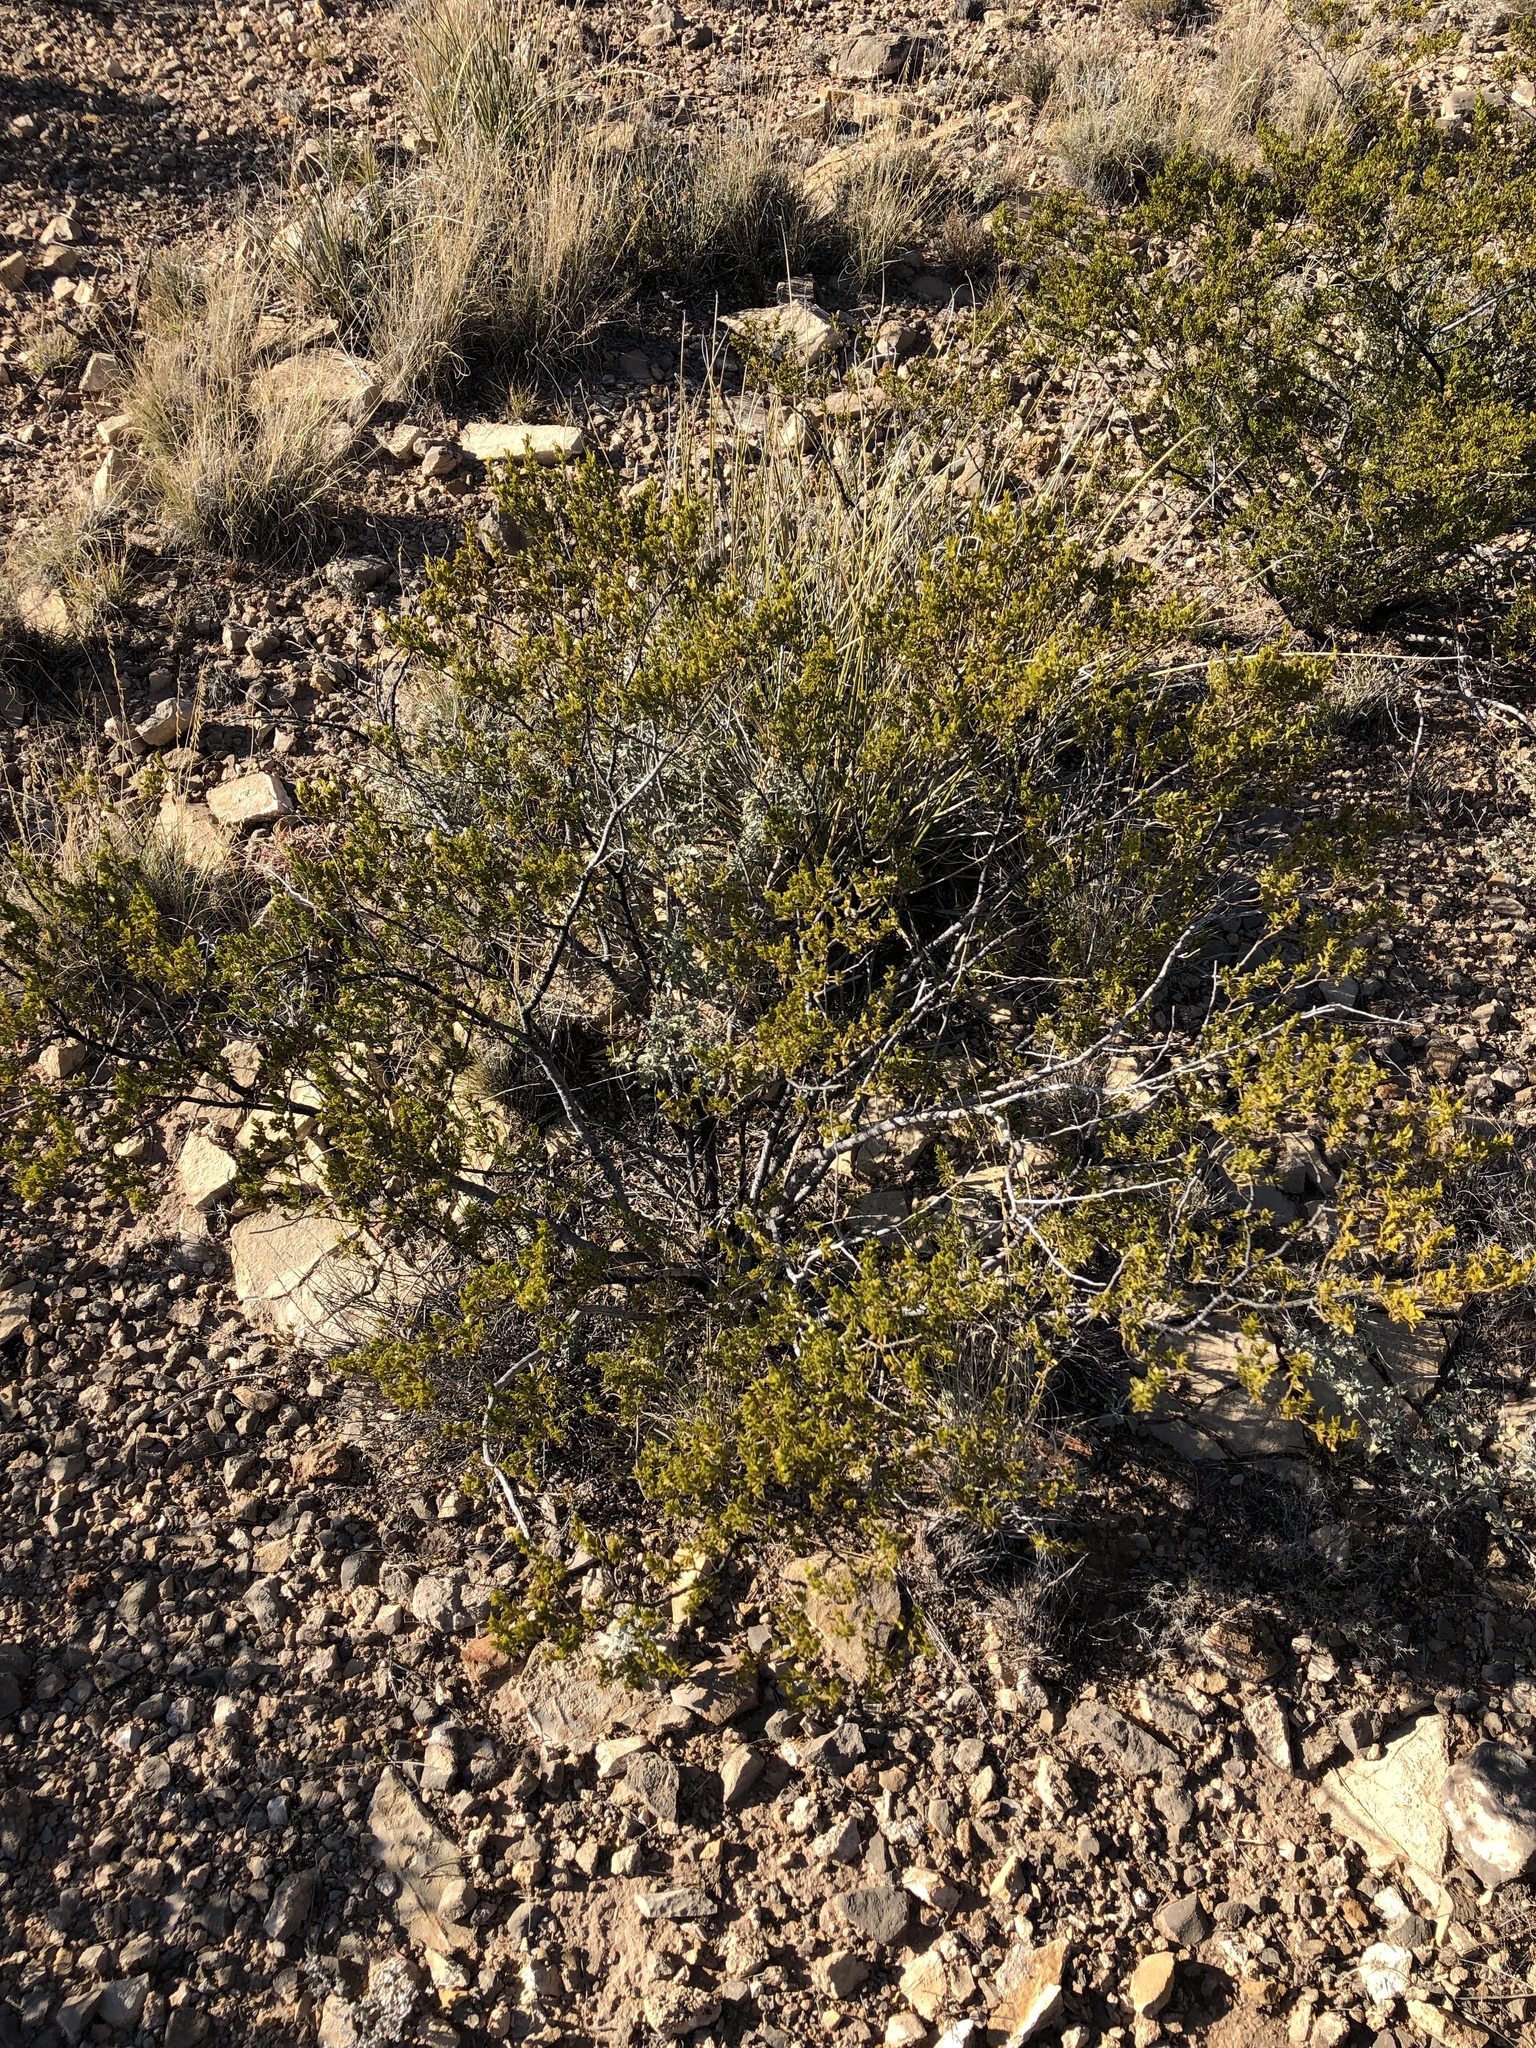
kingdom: Plantae
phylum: Tracheophyta
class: Magnoliopsida
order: Zygophyllales
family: Zygophyllaceae
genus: Larrea
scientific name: Larrea tridentata
